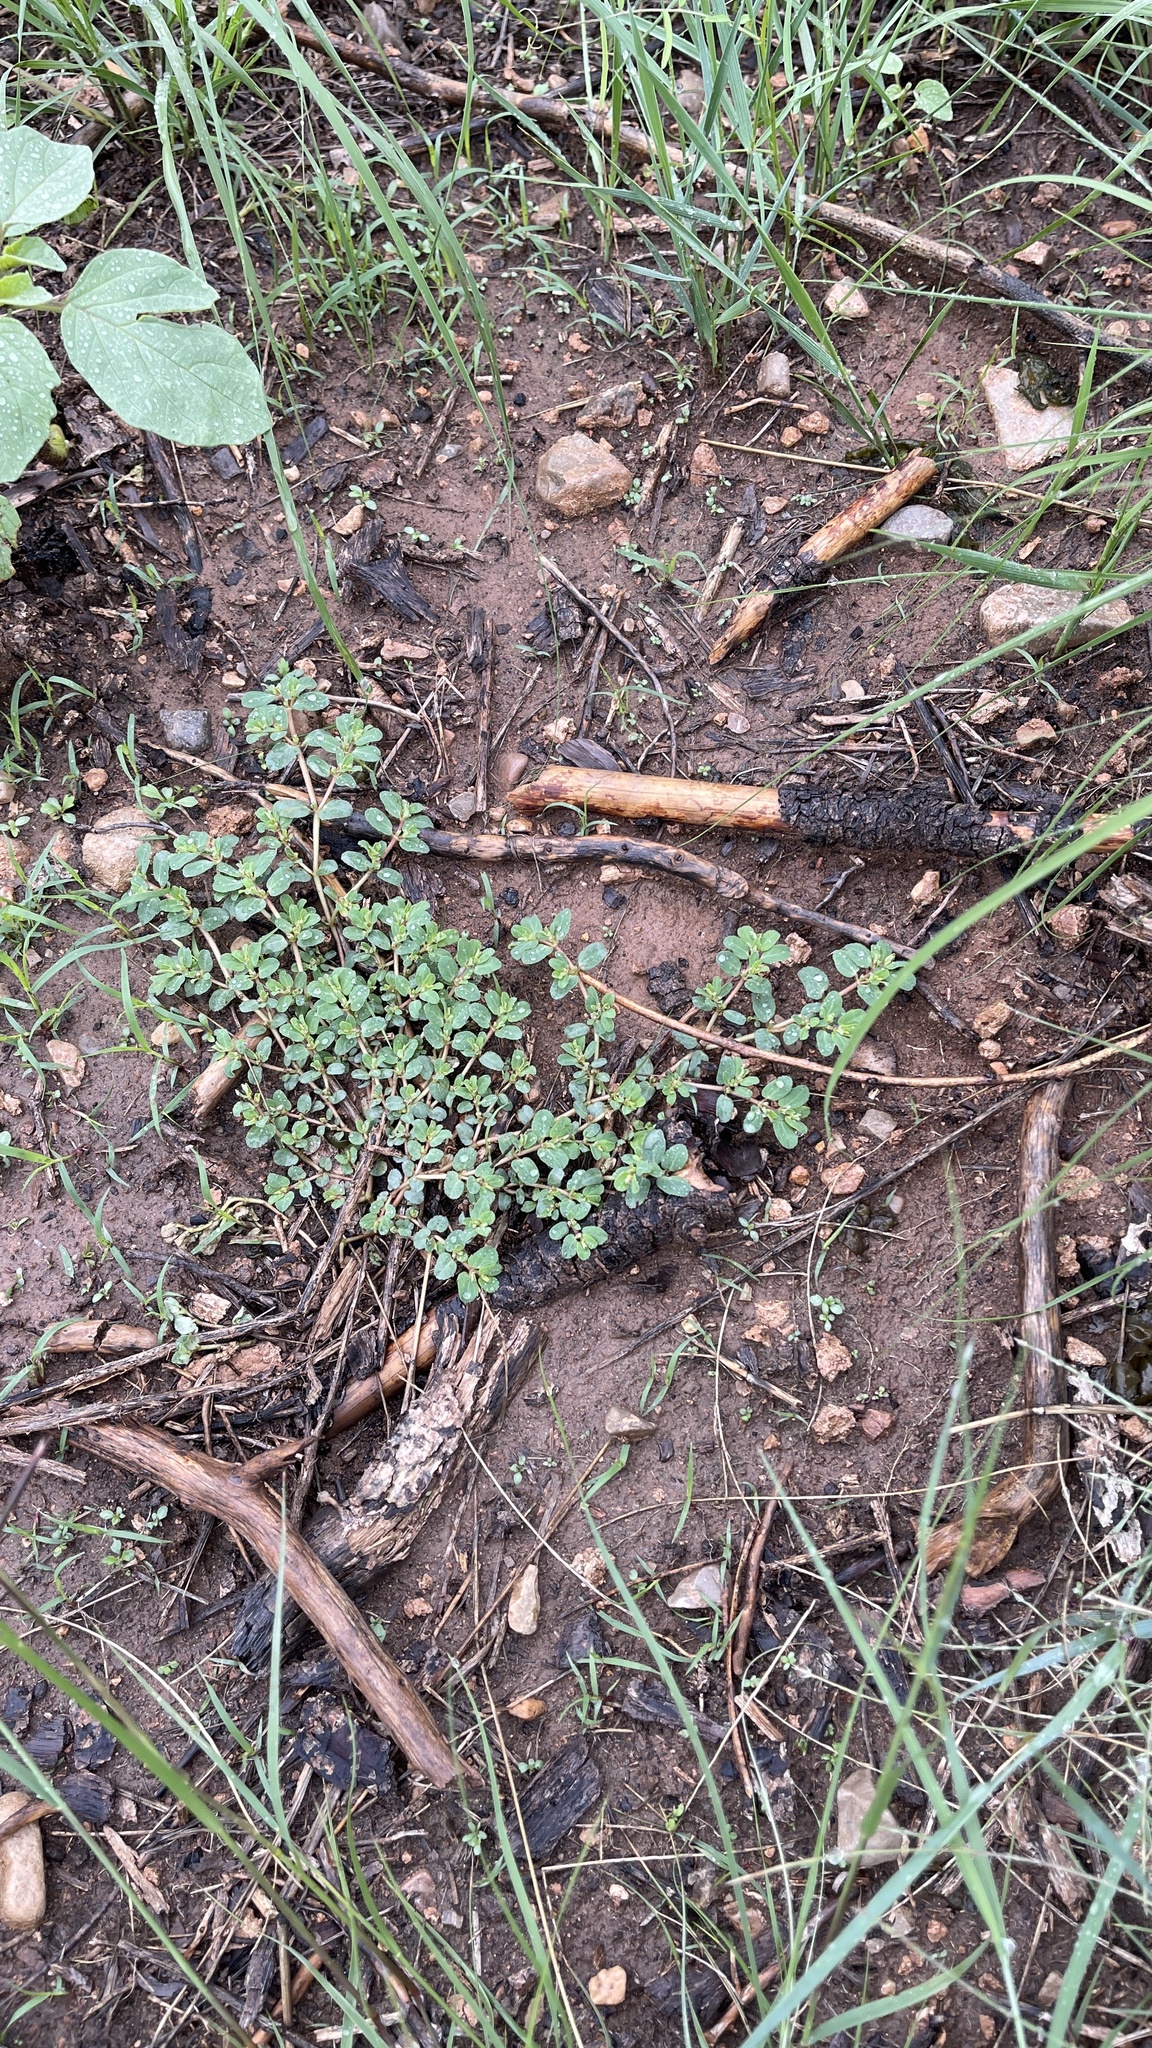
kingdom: Plantae
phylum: Tracheophyta
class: Magnoliopsida
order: Malpighiales
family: Euphorbiaceae
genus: Euphorbia
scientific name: Euphorbia stictospora
